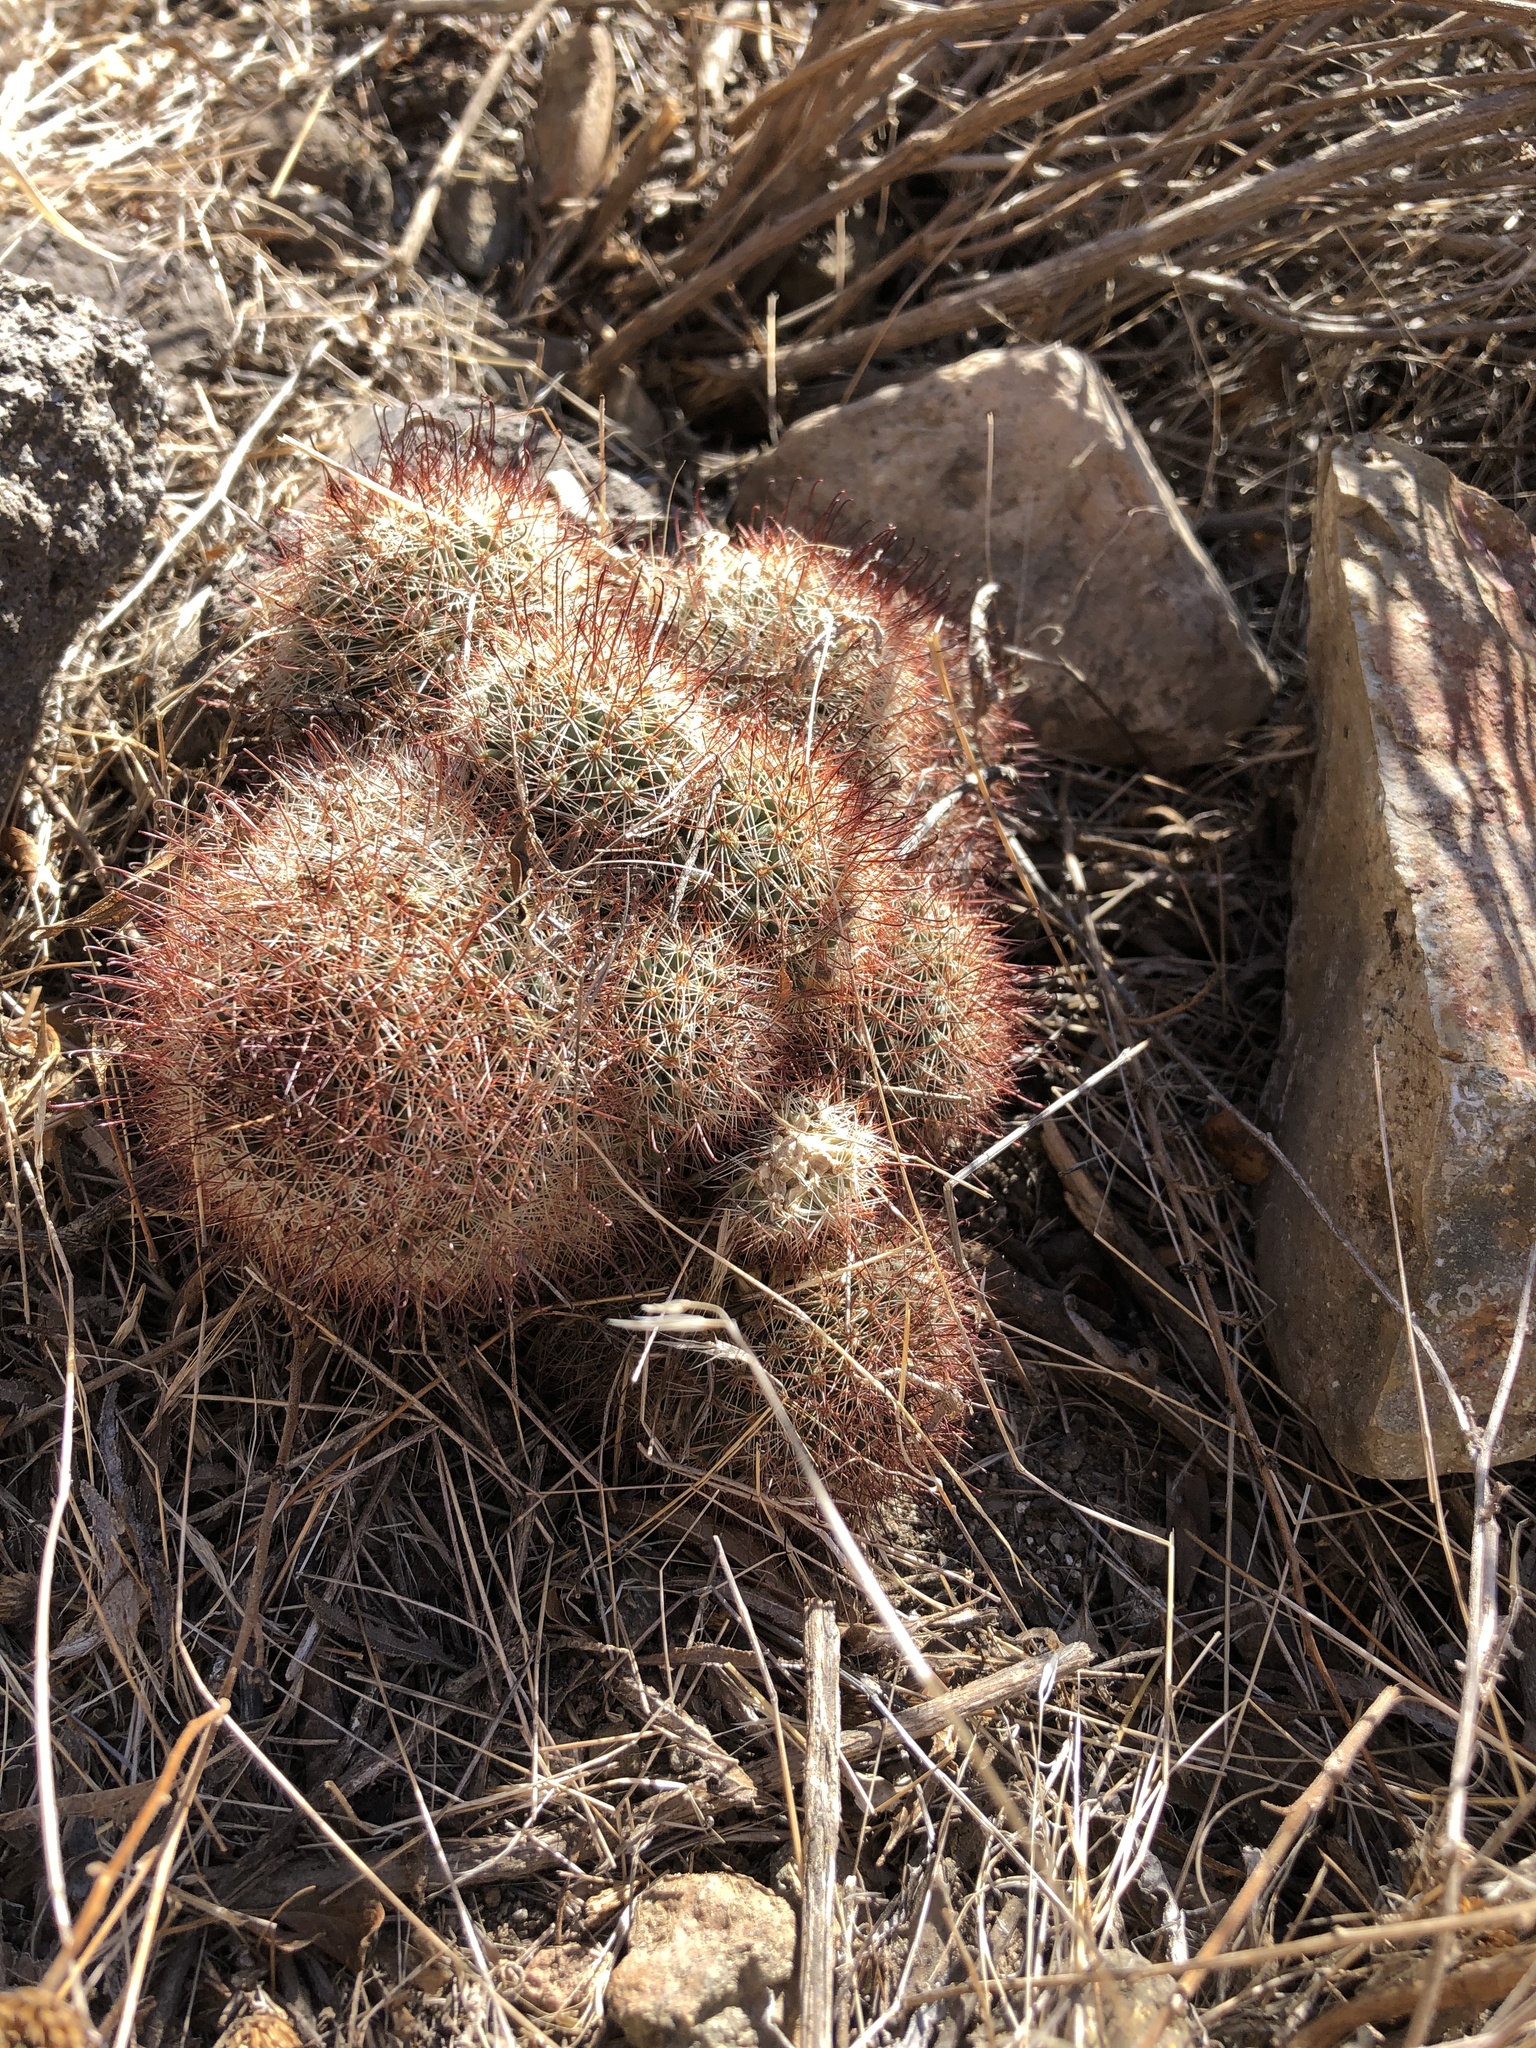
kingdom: Plantae
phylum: Tracheophyta
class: Magnoliopsida
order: Caryophyllales
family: Cactaceae
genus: Cochemiea
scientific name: Cochemiea dioica
